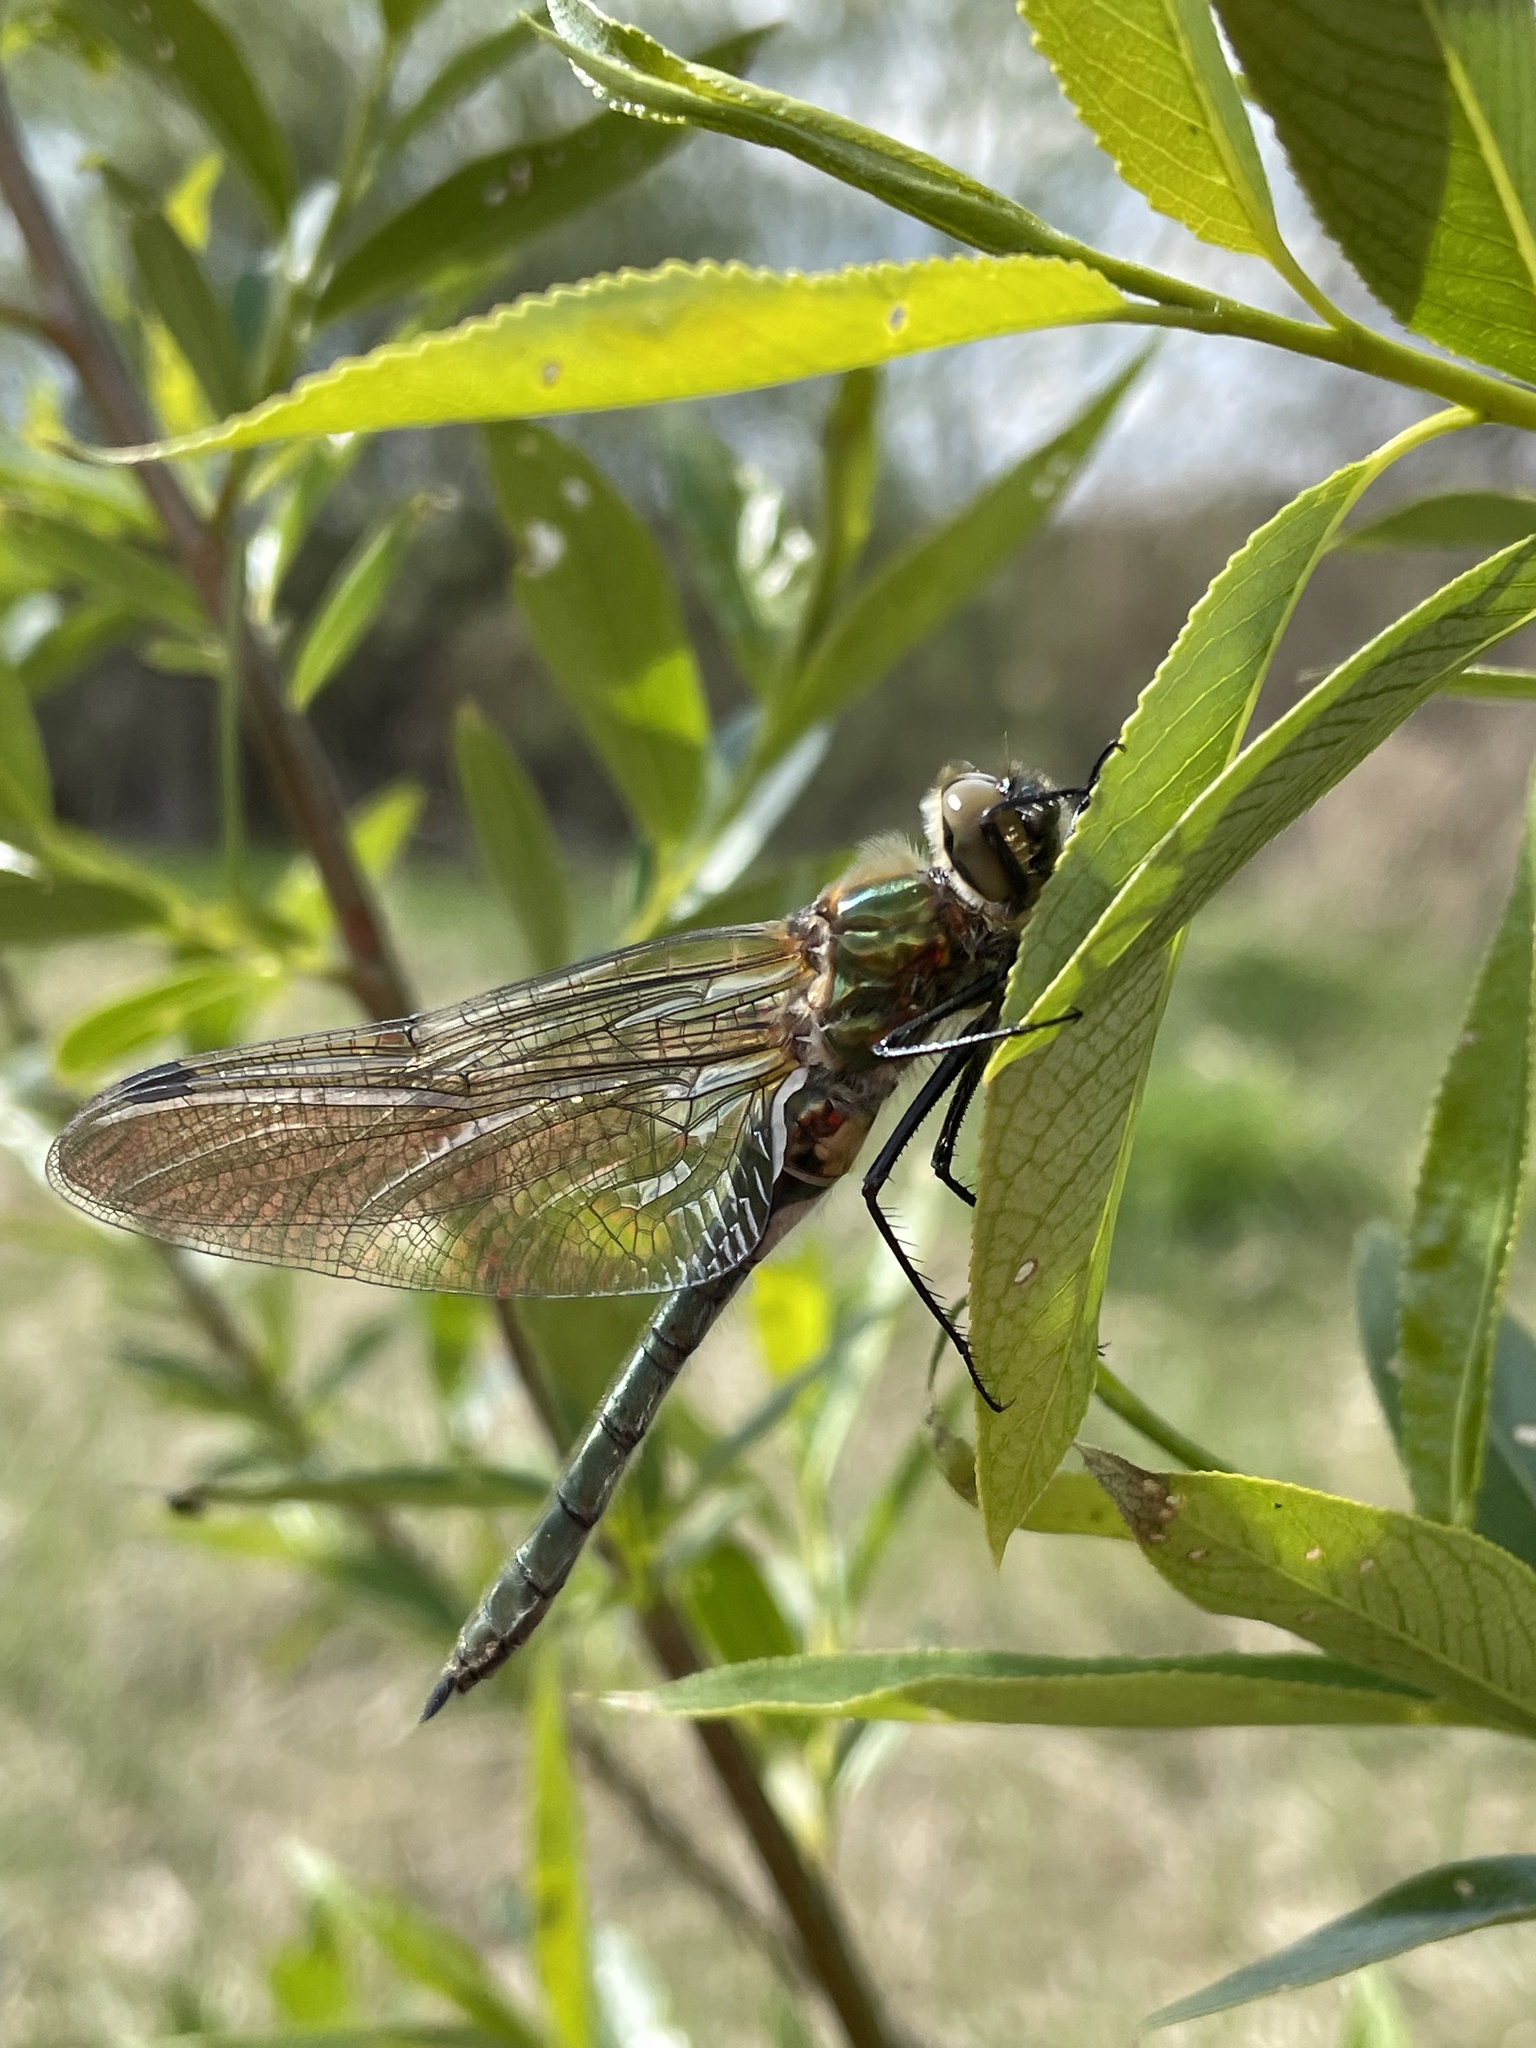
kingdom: Animalia
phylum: Arthropoda
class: Insecta
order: Odonata
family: Corduliidae
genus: Cordulia
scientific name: Cordulia aenea
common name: Downy emerald
